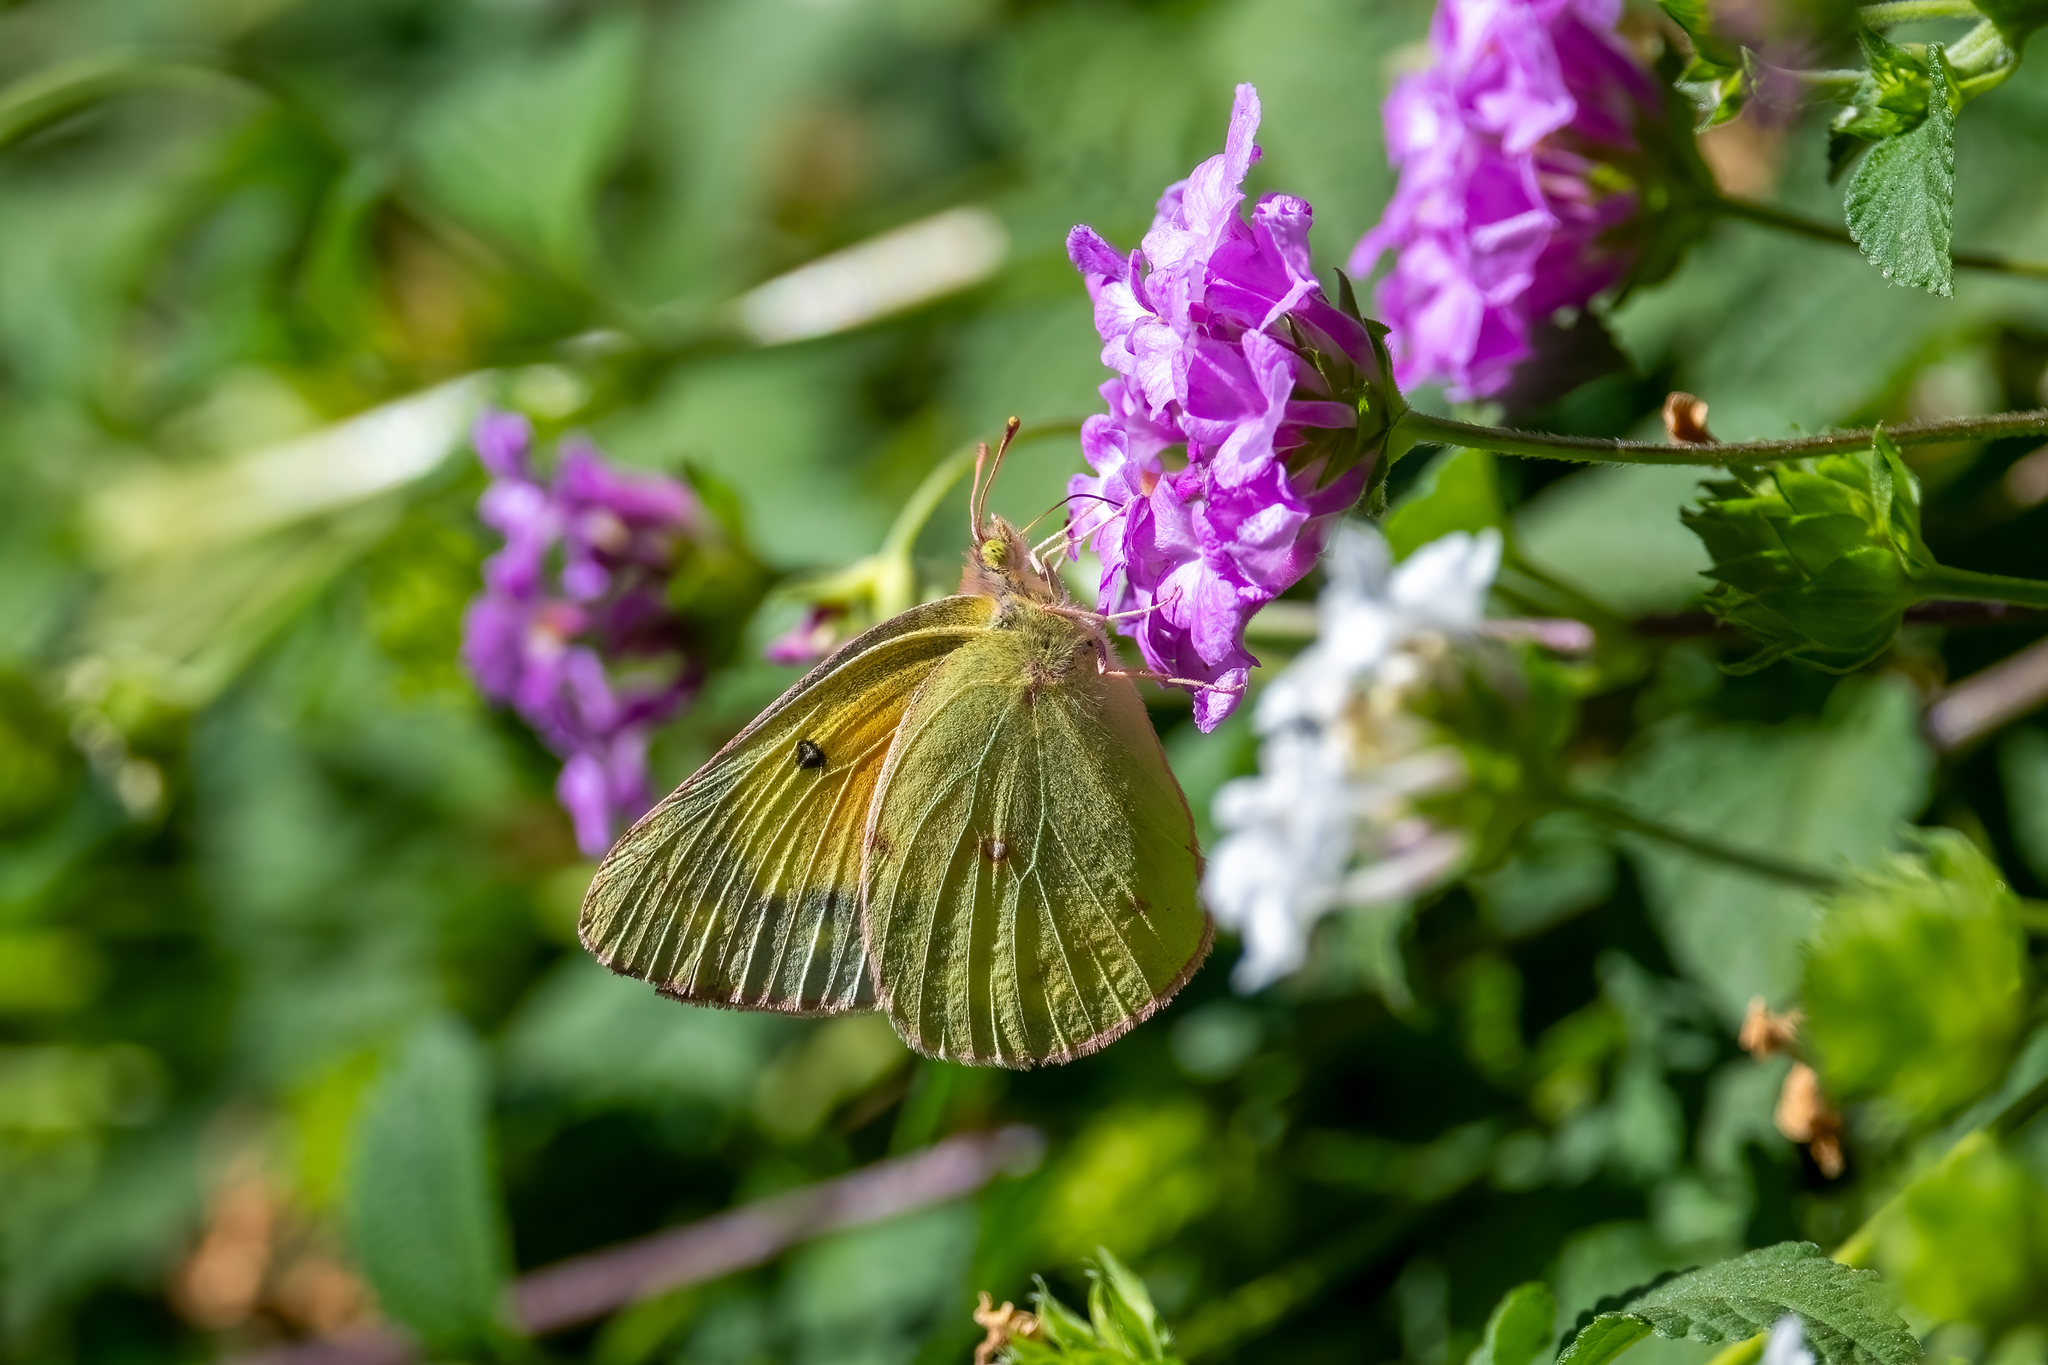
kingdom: Animalia
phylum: Arthropoda
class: Insecta
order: Lepidoptera
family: Pieridae
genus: Colias
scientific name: Colias eurytheme
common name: Alfalfa butterfly
